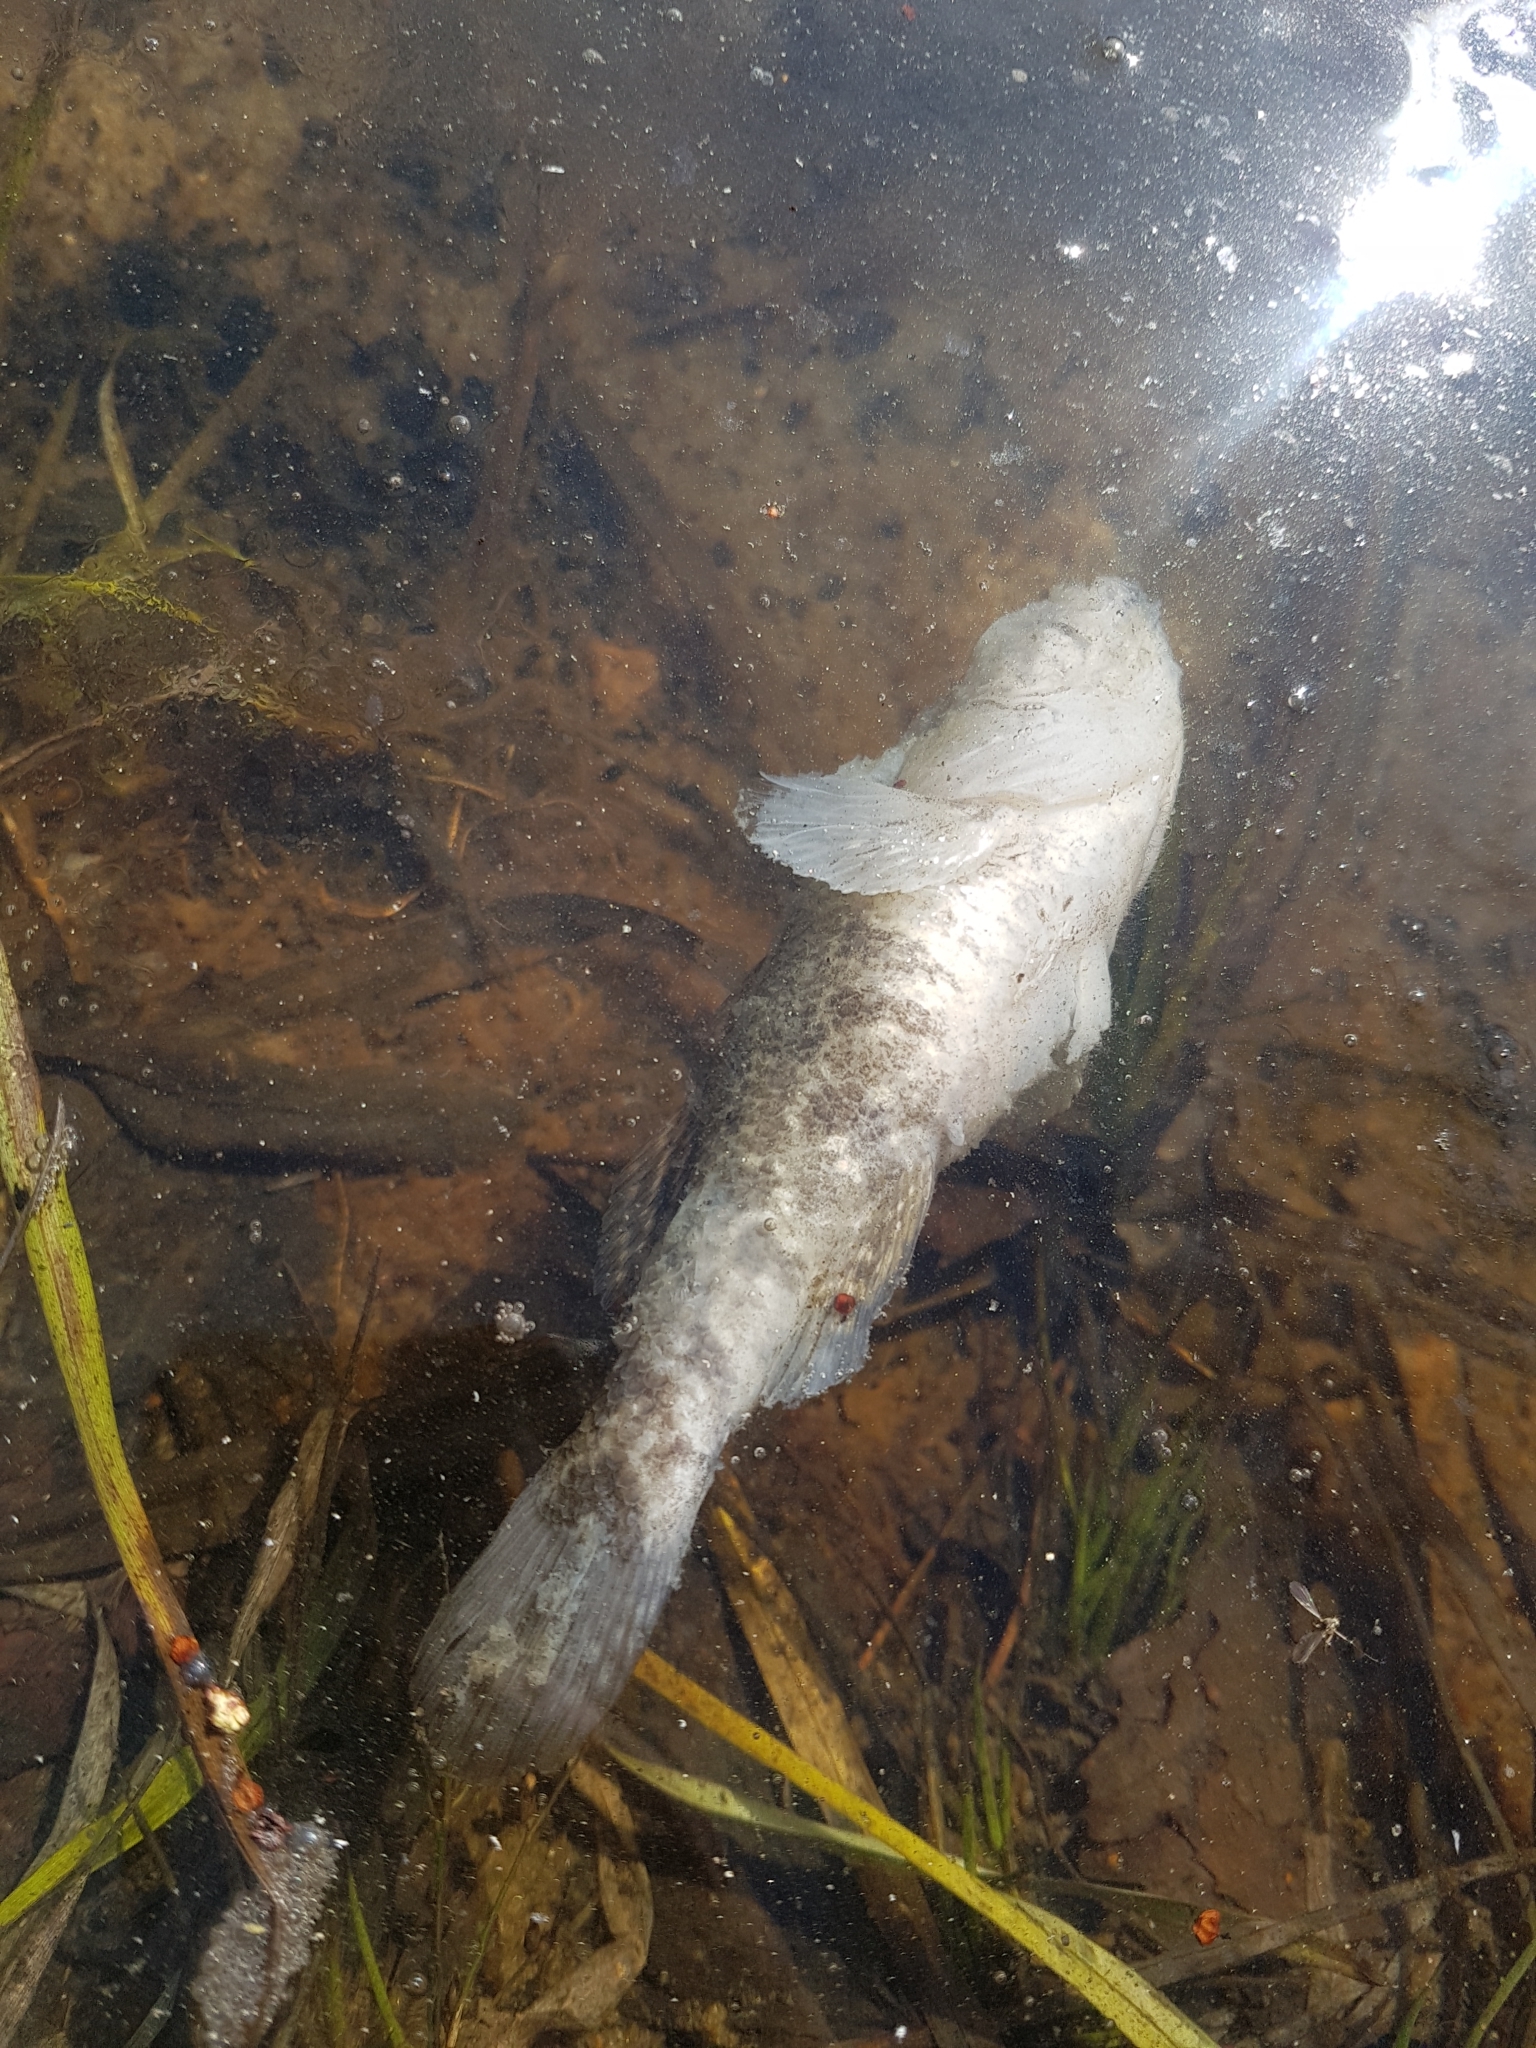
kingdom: Animalia
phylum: Chordata
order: Perciformes
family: Odontobutidae
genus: Perccottus
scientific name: Perccottus glenii
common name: Amur sleeper
